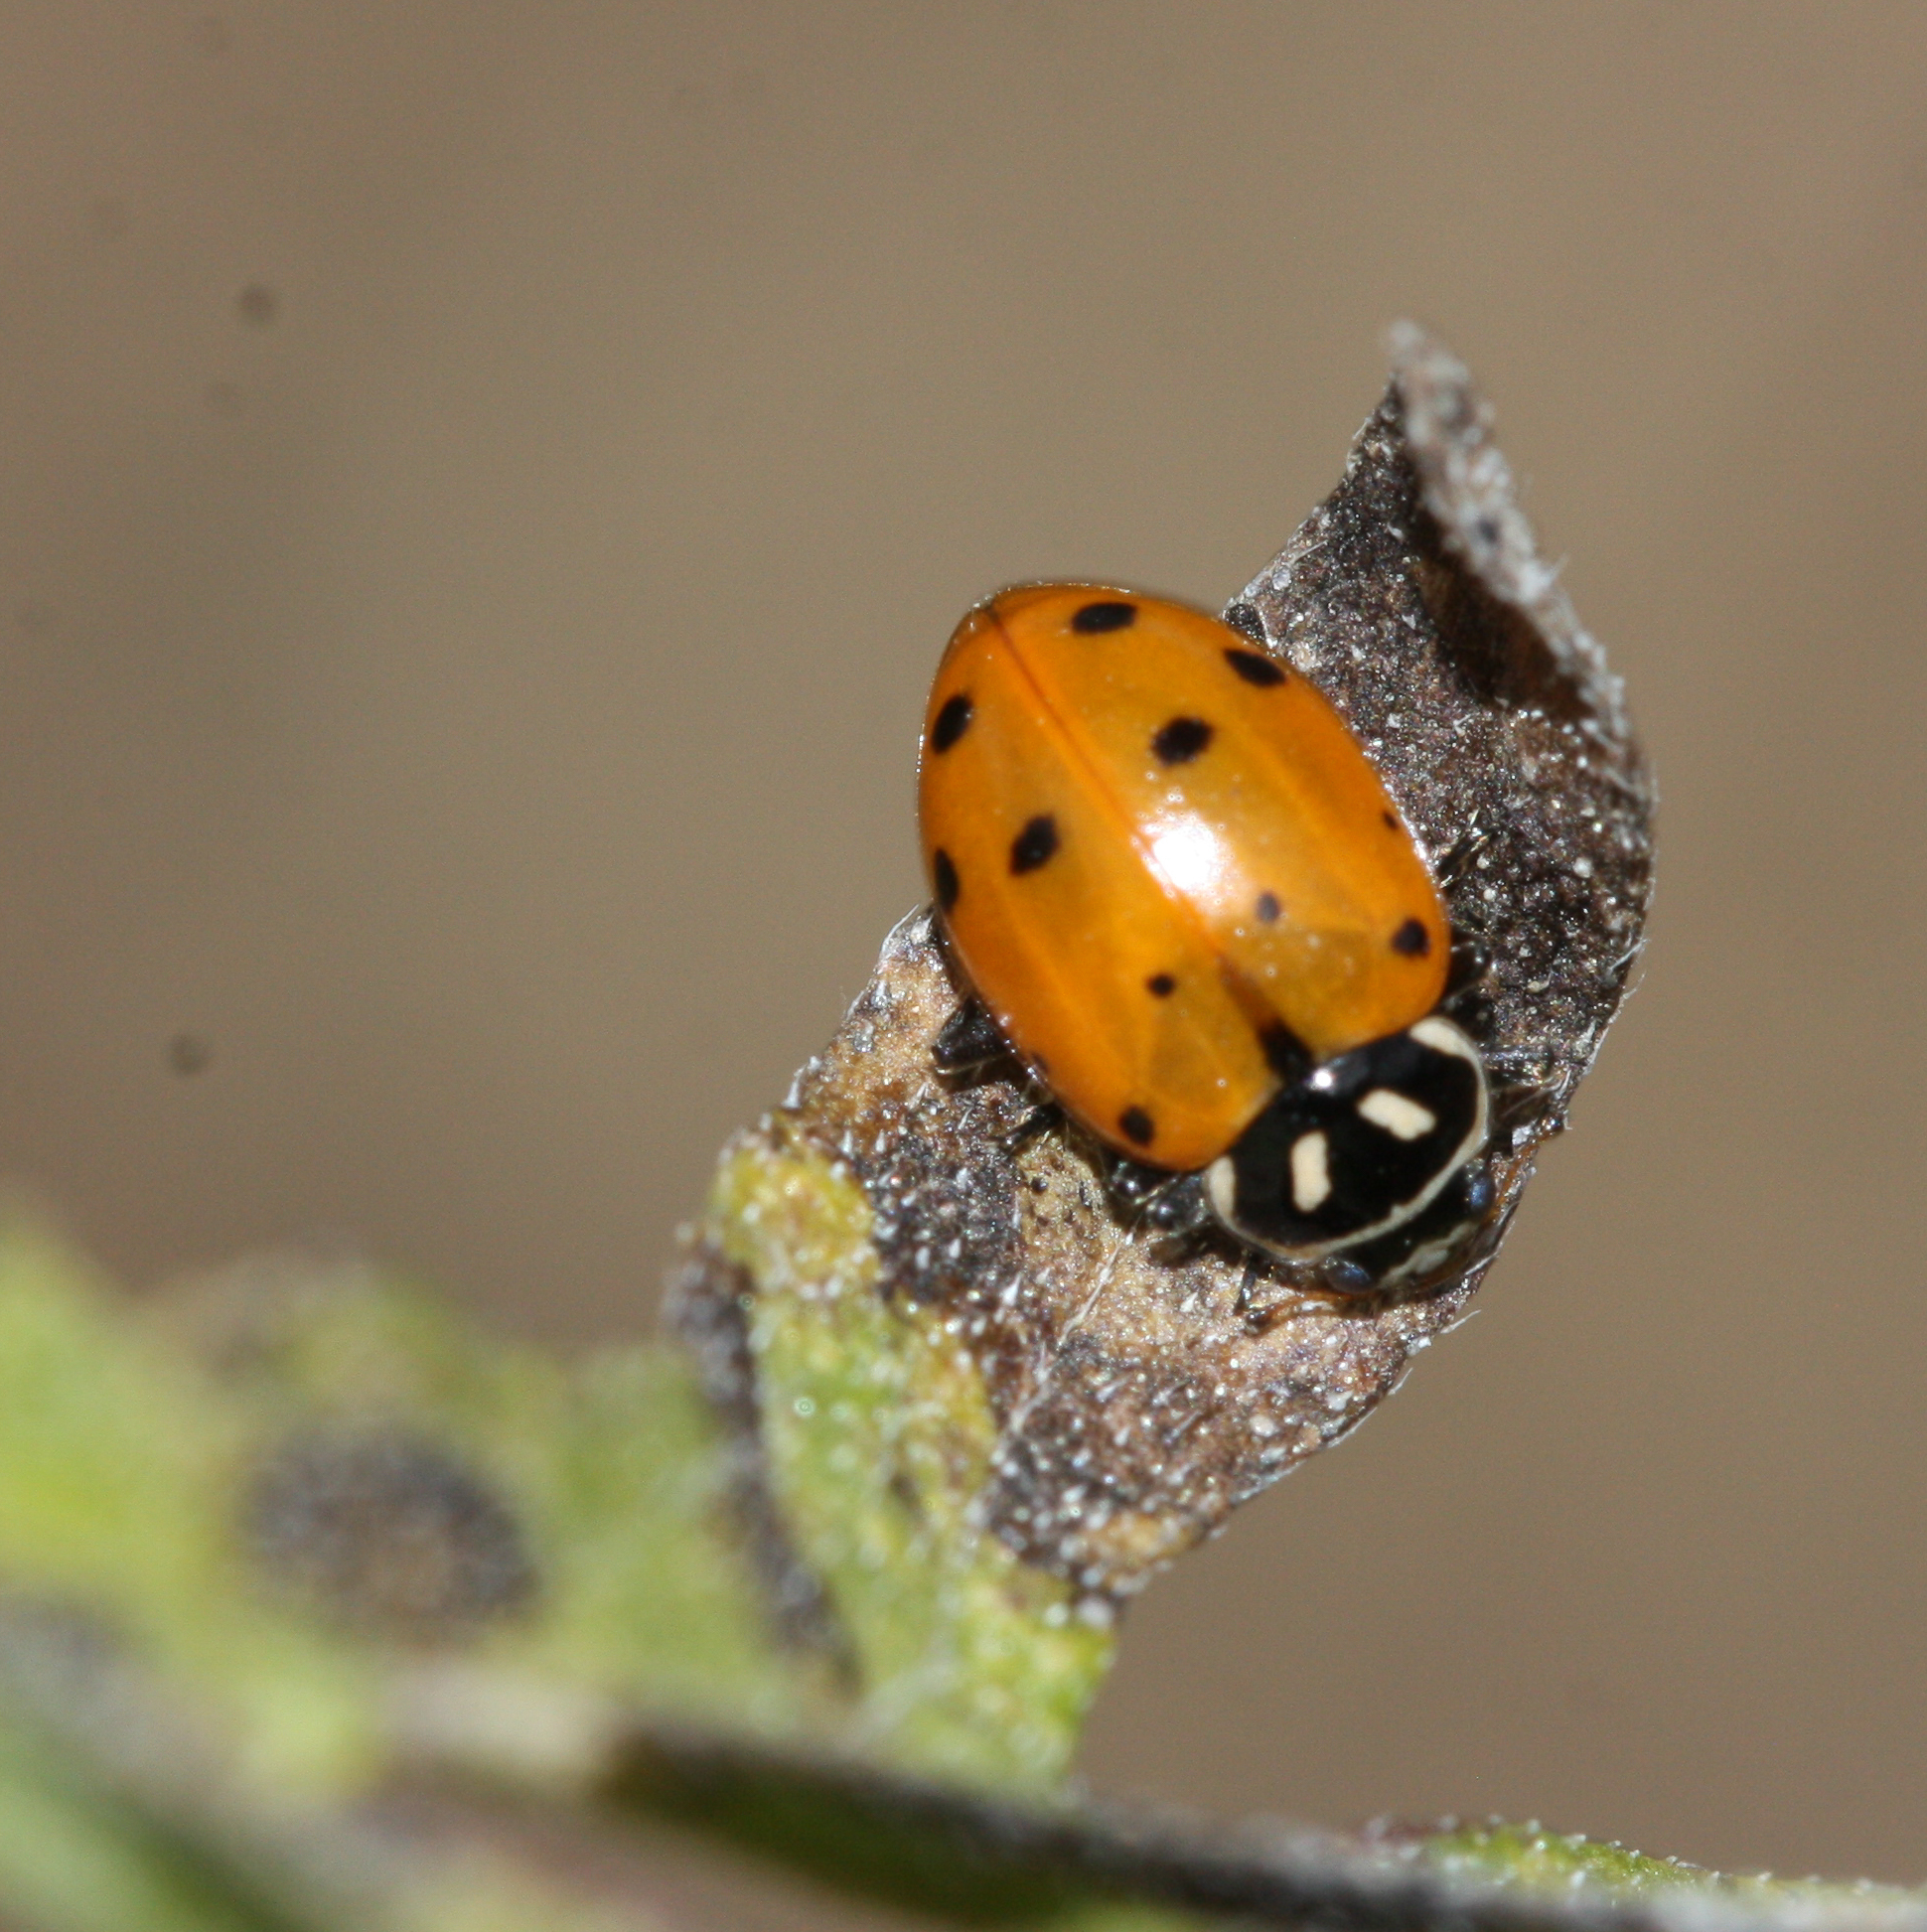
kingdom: Animalia
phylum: Arthropoda
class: Insecta
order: Coleoptera
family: Coccinellidae
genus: Hippodamia
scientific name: Hippodamia convergens
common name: Convergent lady beetle
